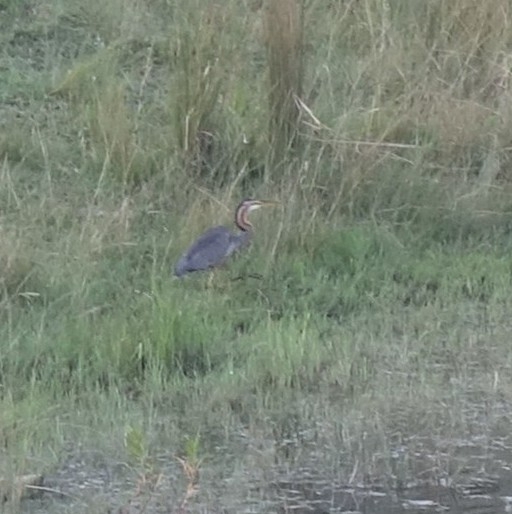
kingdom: Animalia
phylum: Chordata
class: Aves
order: Pelecaniformes
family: Ardeidae
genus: Ardea
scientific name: Ardea purpurea
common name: Purple heron
